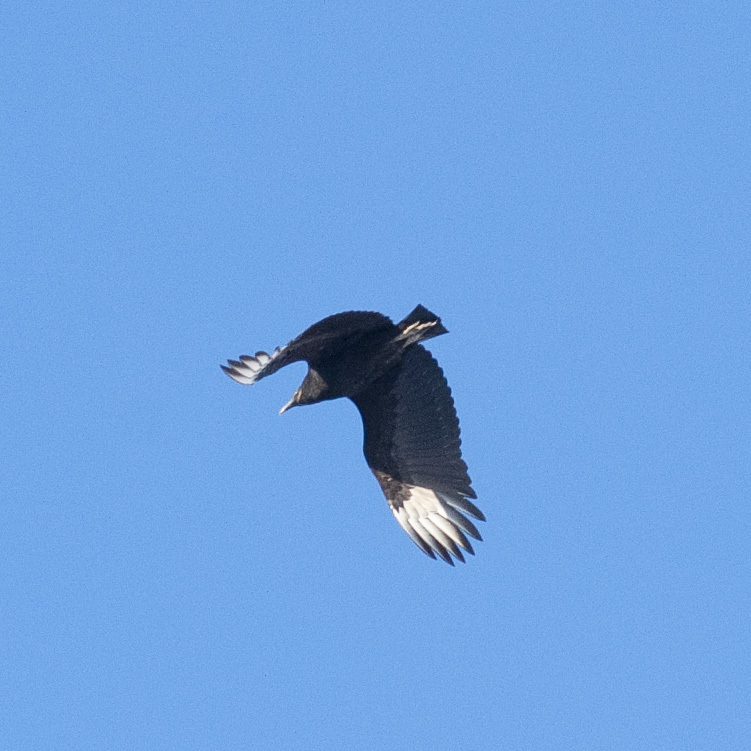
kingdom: Animalia
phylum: Chordata
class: Aves
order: Accipitriformes
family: Cathartidae
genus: Coragyps
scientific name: Coragyps atratus
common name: Black vulture
